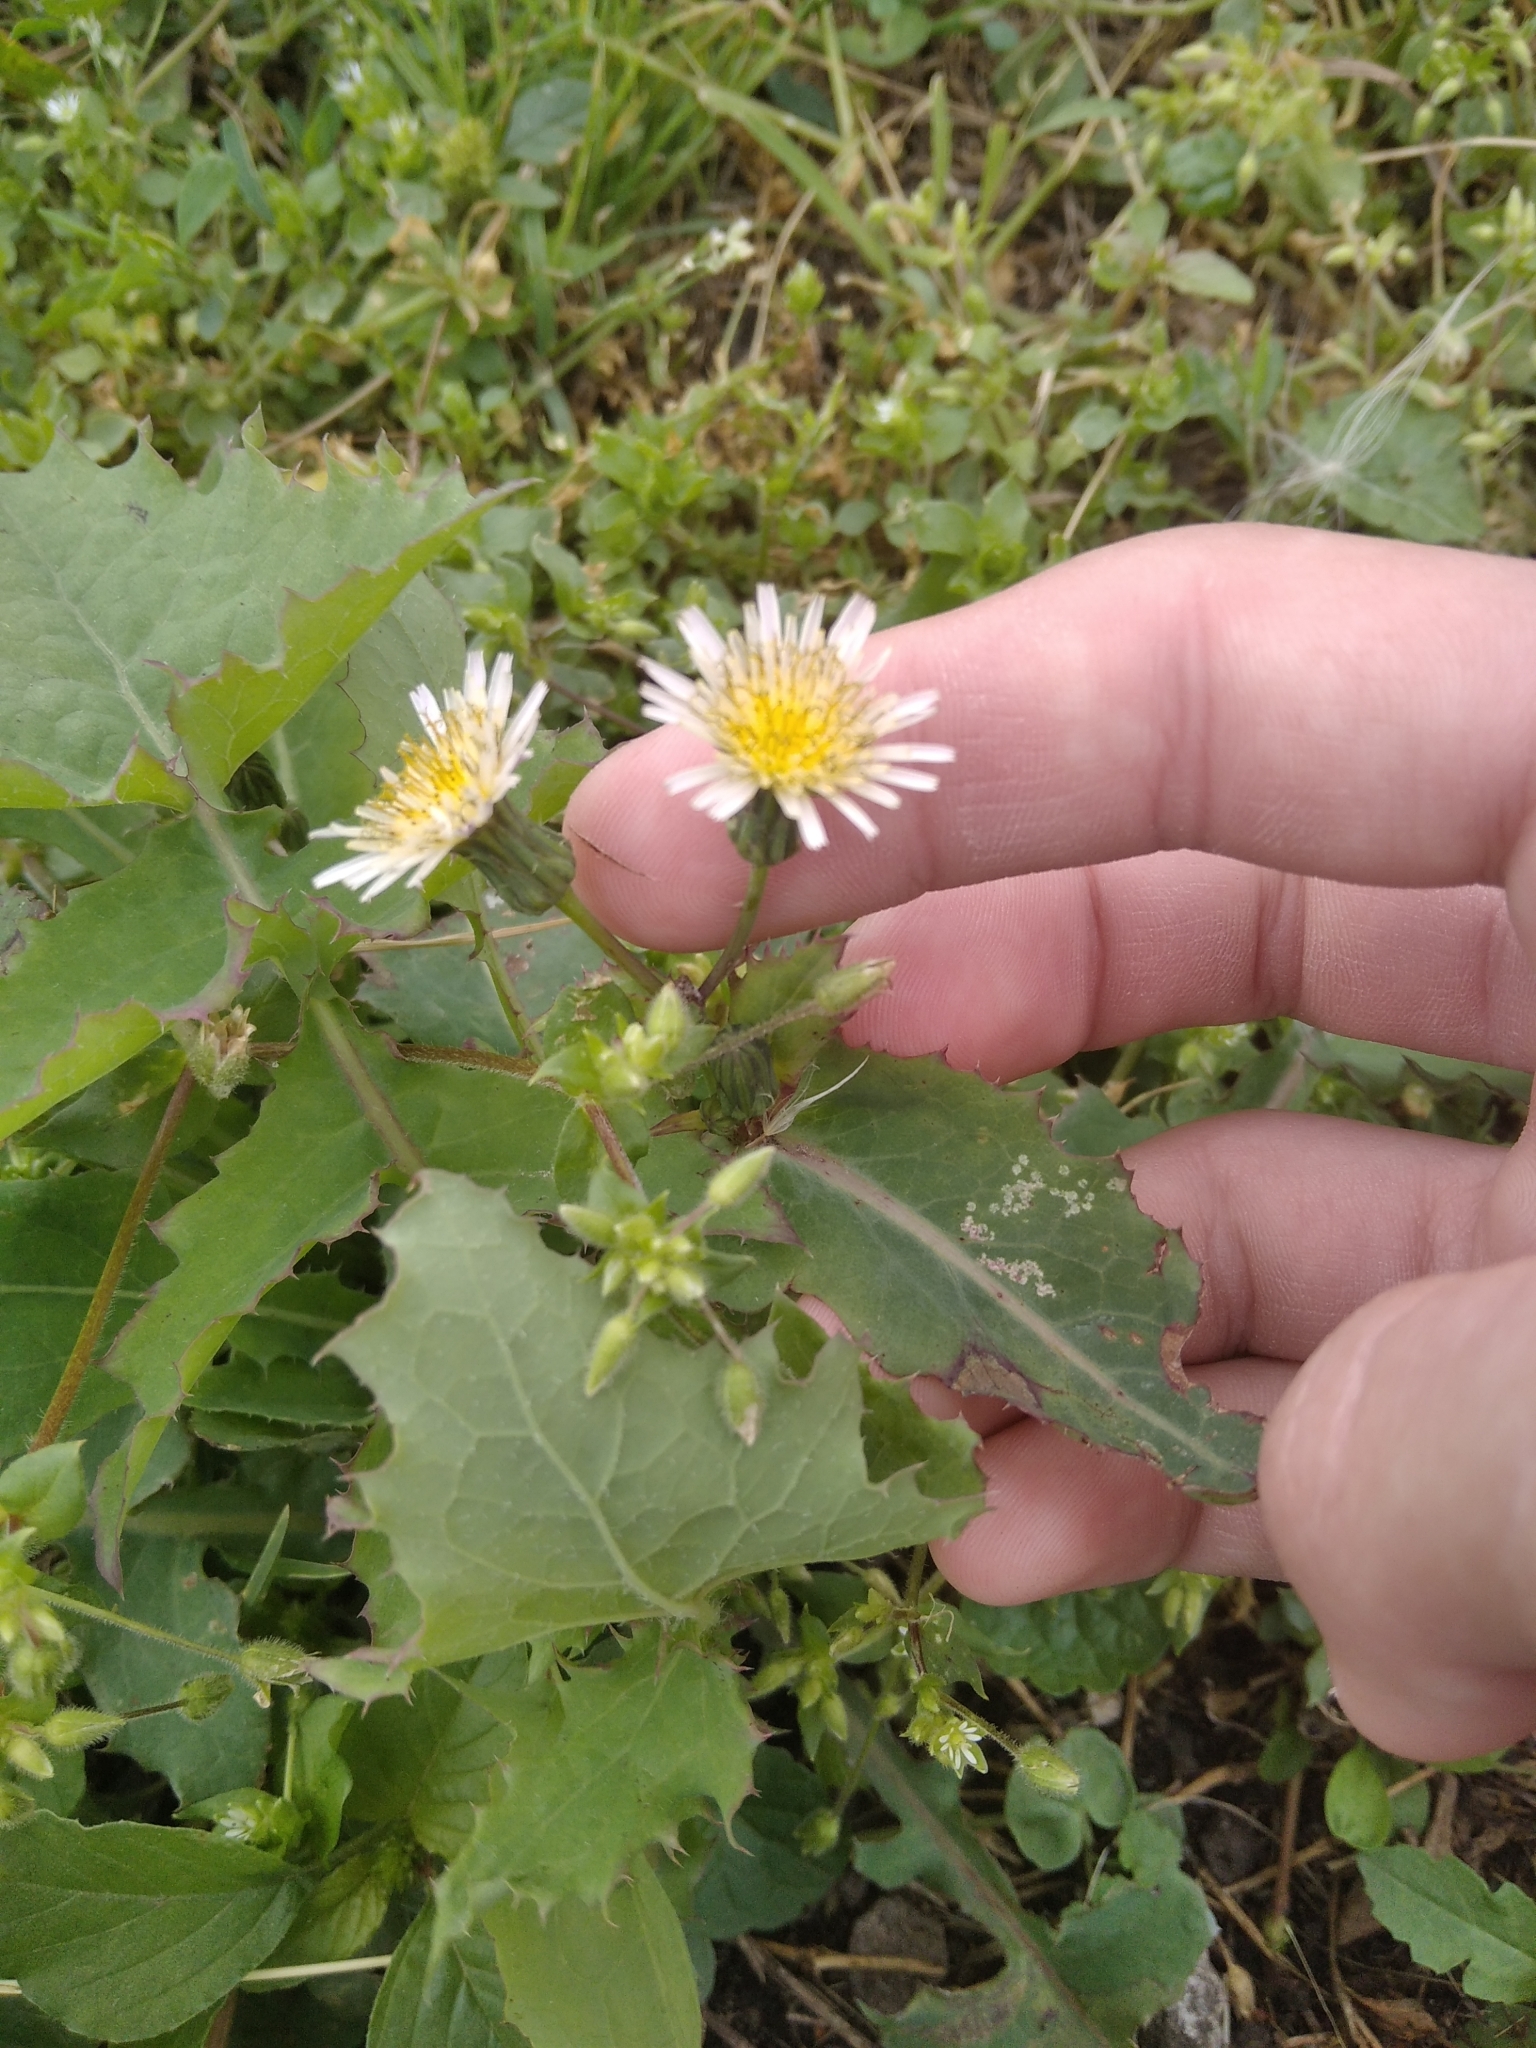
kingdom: Plantae
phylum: Tracheophyta
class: Magnoliopsida
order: Asterales
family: Asteraceae
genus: Sonchus
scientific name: Sonchus oleraceus
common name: Common sowthistle
